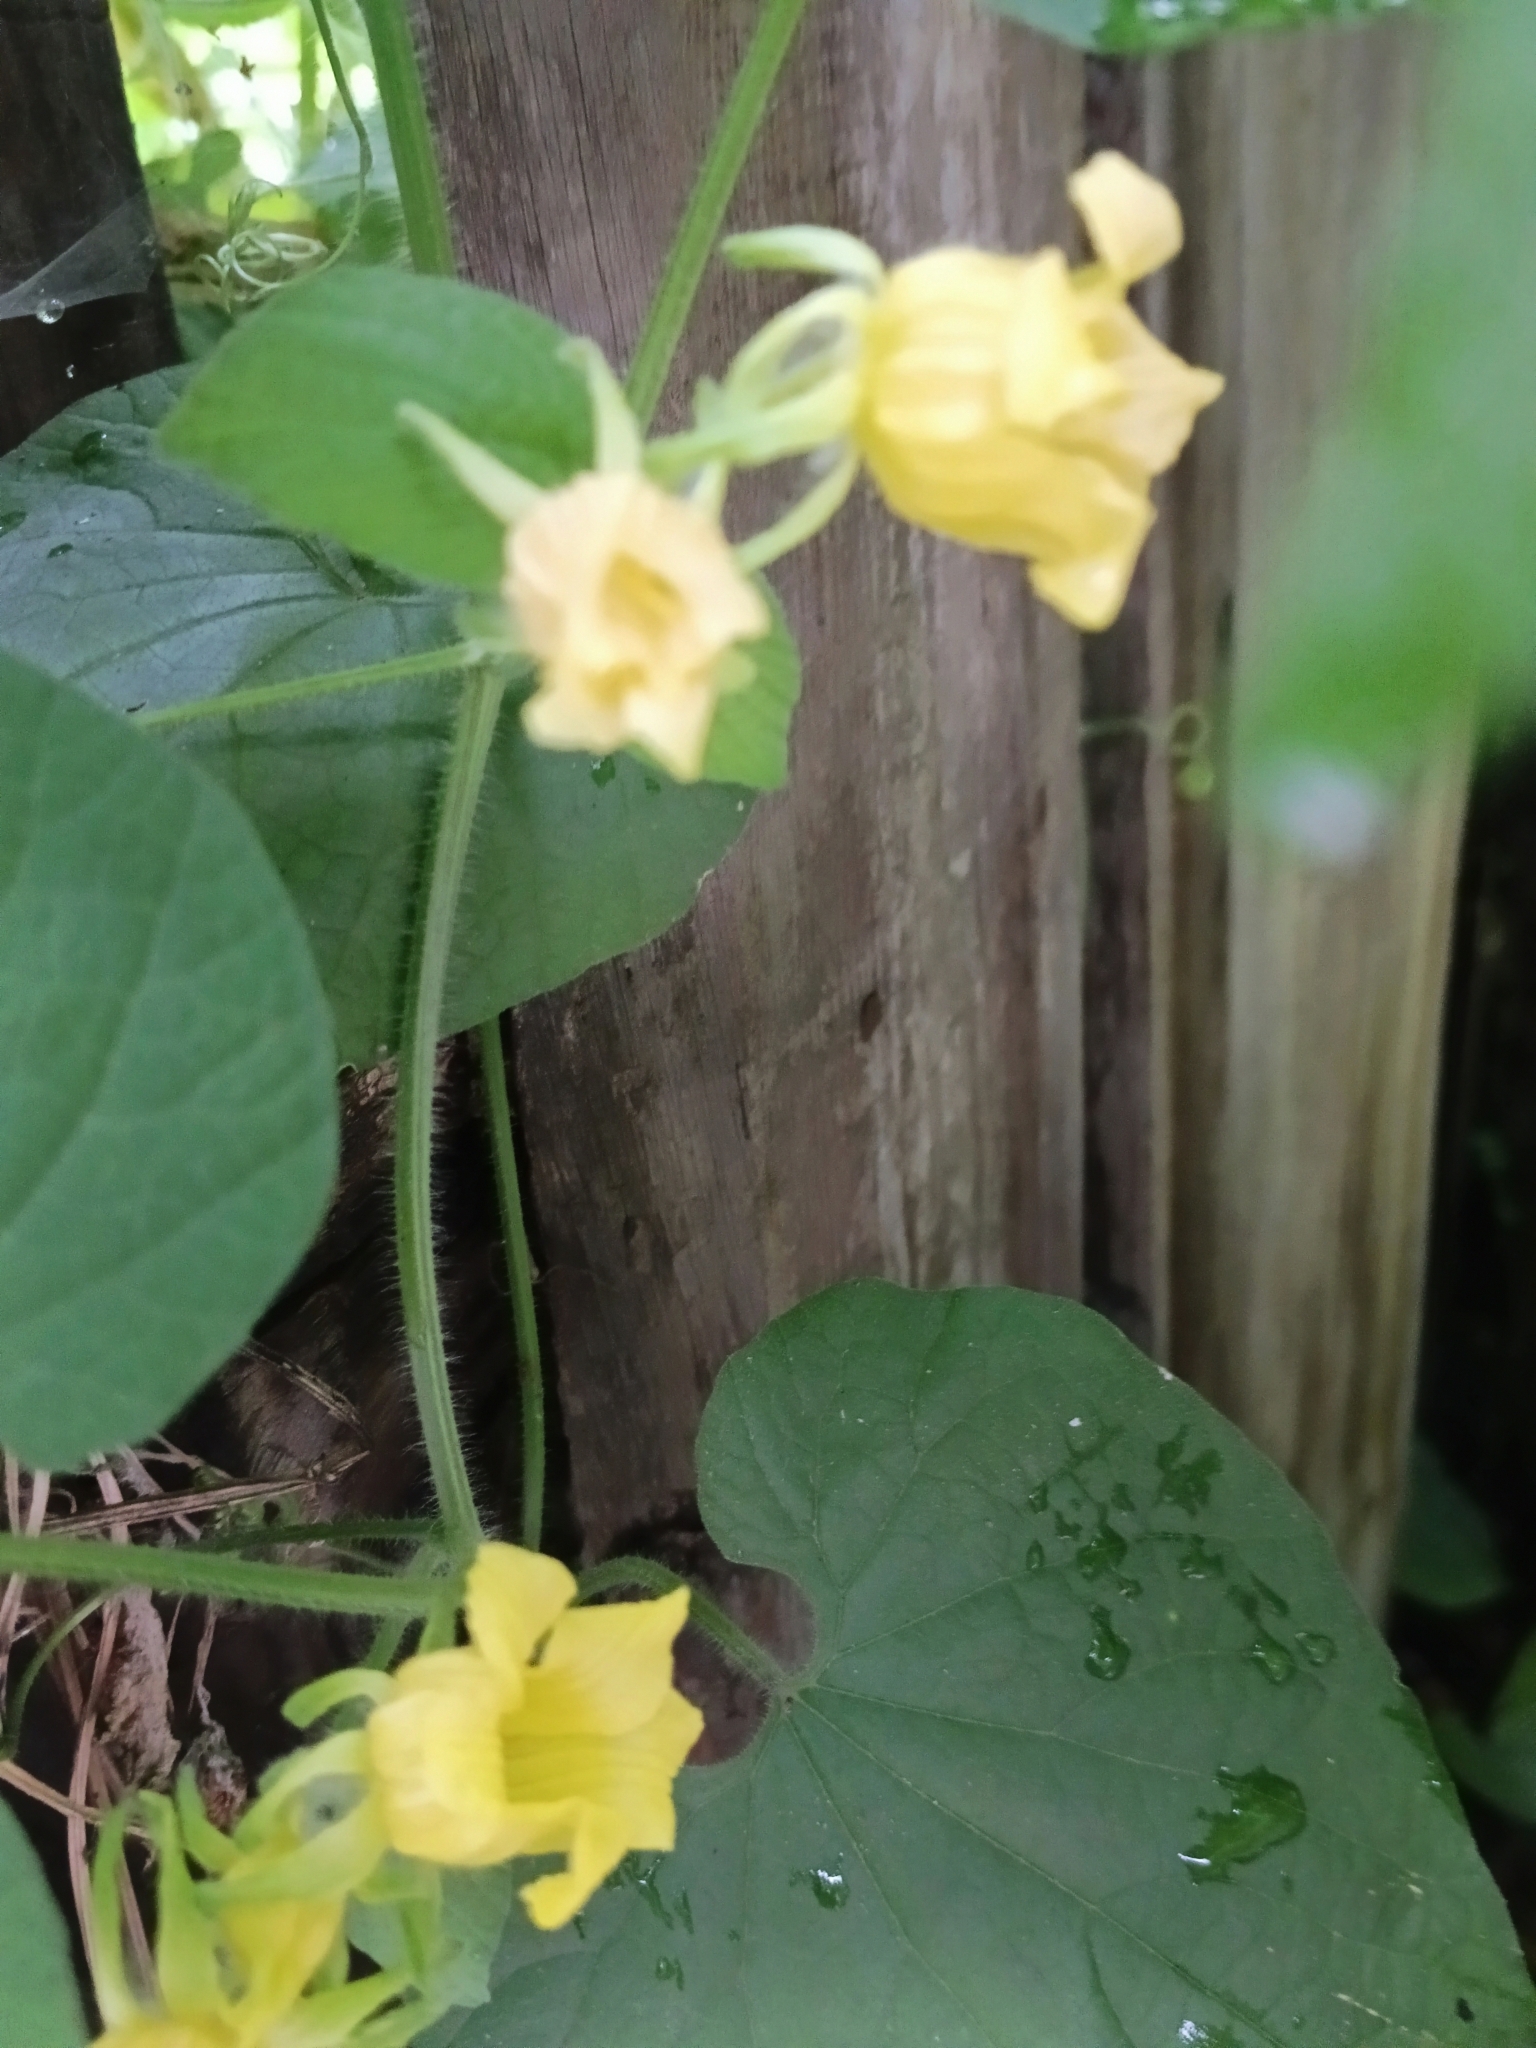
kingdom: Plantae
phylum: Tracheophyta
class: Magnoliopsida
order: Cucurbitales
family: Cucurbitaceae
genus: Thladiantha
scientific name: Thladiantha dubia
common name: Manchu tubergourd
